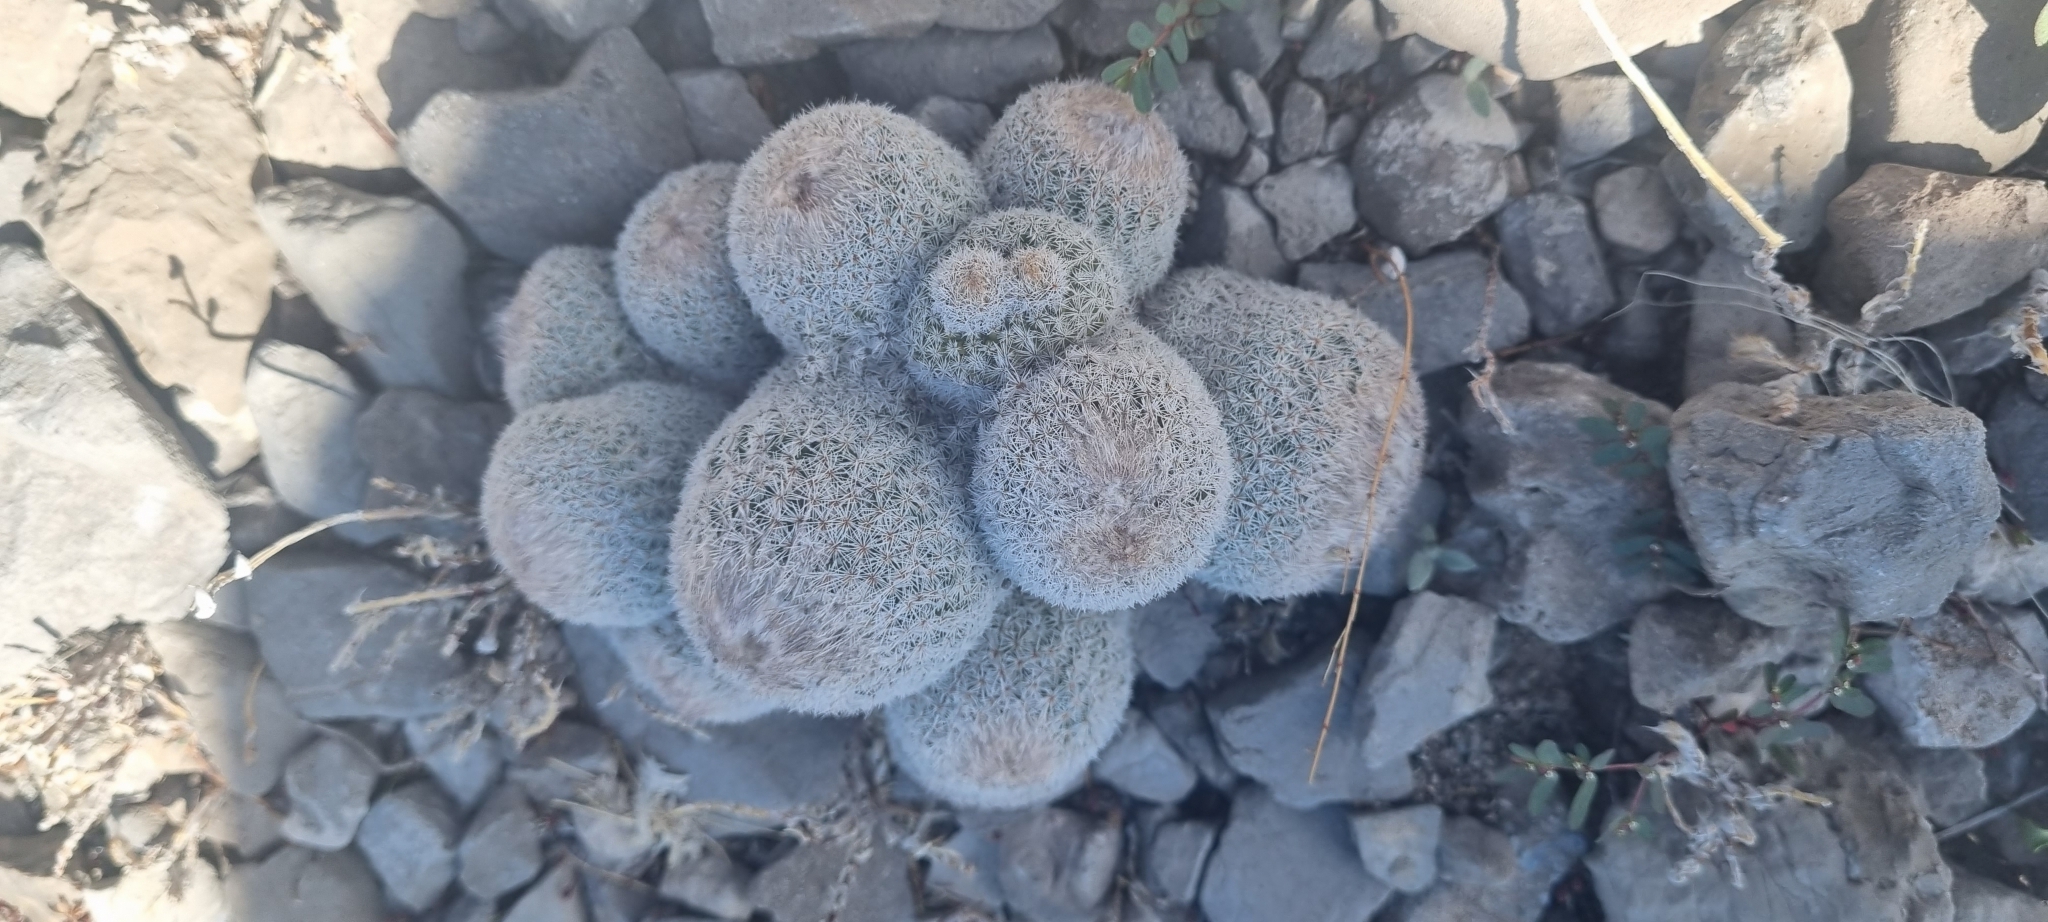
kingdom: Plantae
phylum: Tracheophyta
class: Magnoliopsida
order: Caryophyllales
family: Cactaceae
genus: Epithelantha
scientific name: Epithelantha greggii
